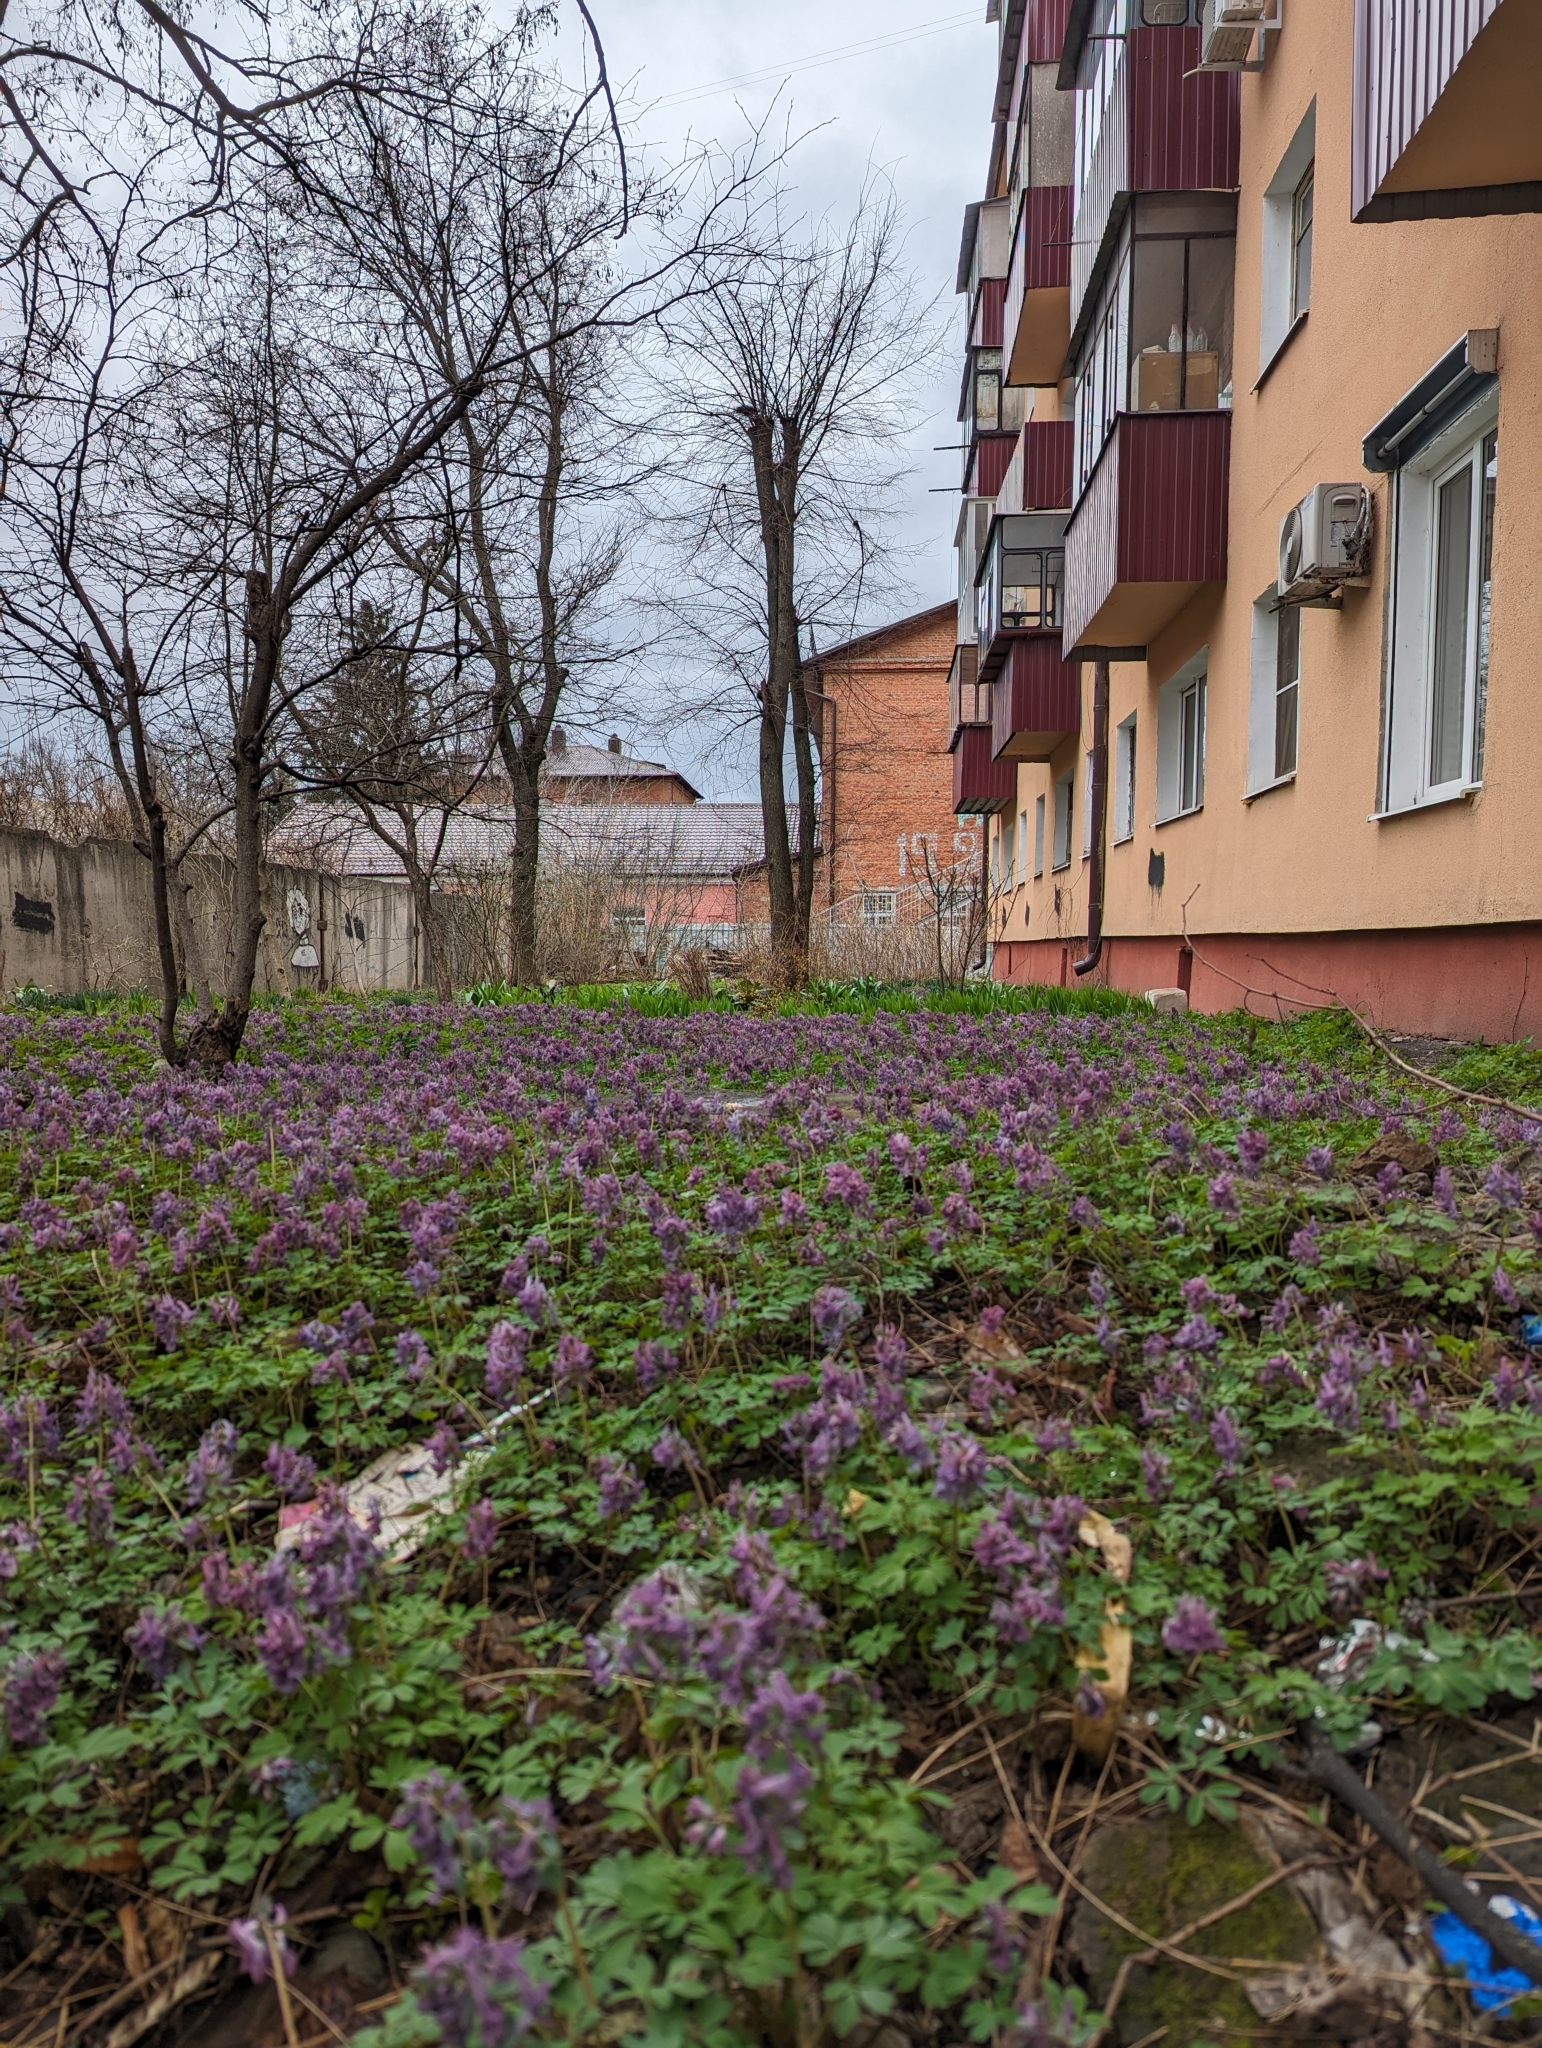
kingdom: Plantae
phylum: Tracheophyta
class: Magnoliopsida
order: Ranunculales
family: Papaveraceae
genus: Corydalis
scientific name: Corydalis solida
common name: Bird-in-a-bush
